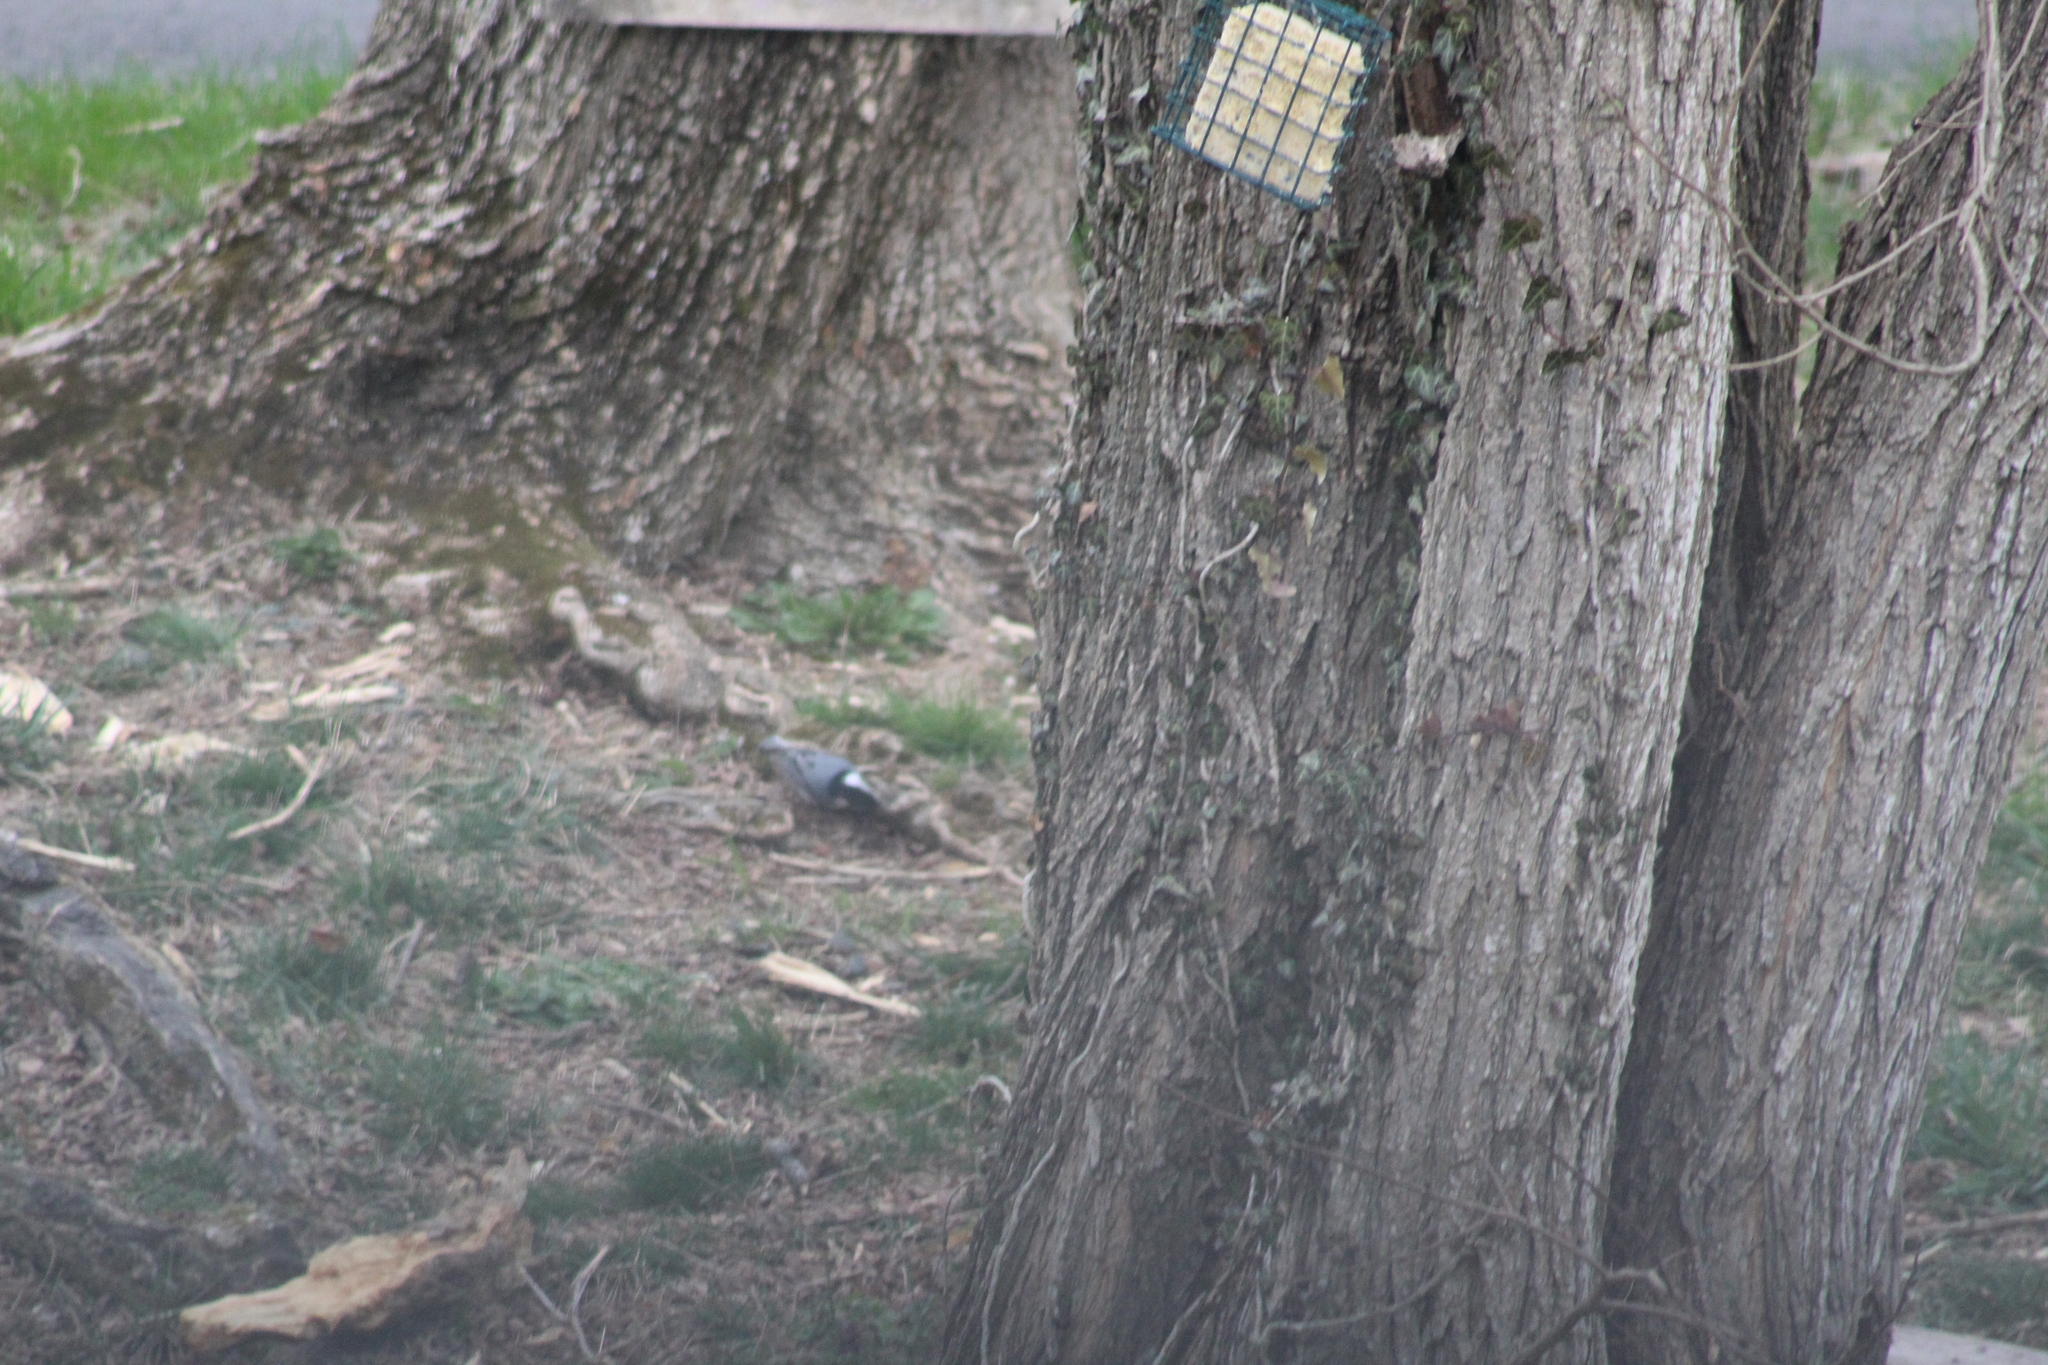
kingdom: Animalia
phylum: Chordata
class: Aves
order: Passeriformes
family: Sittidae
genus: Sitta
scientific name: Sitta carolinensis
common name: White-breasted nuthatch
